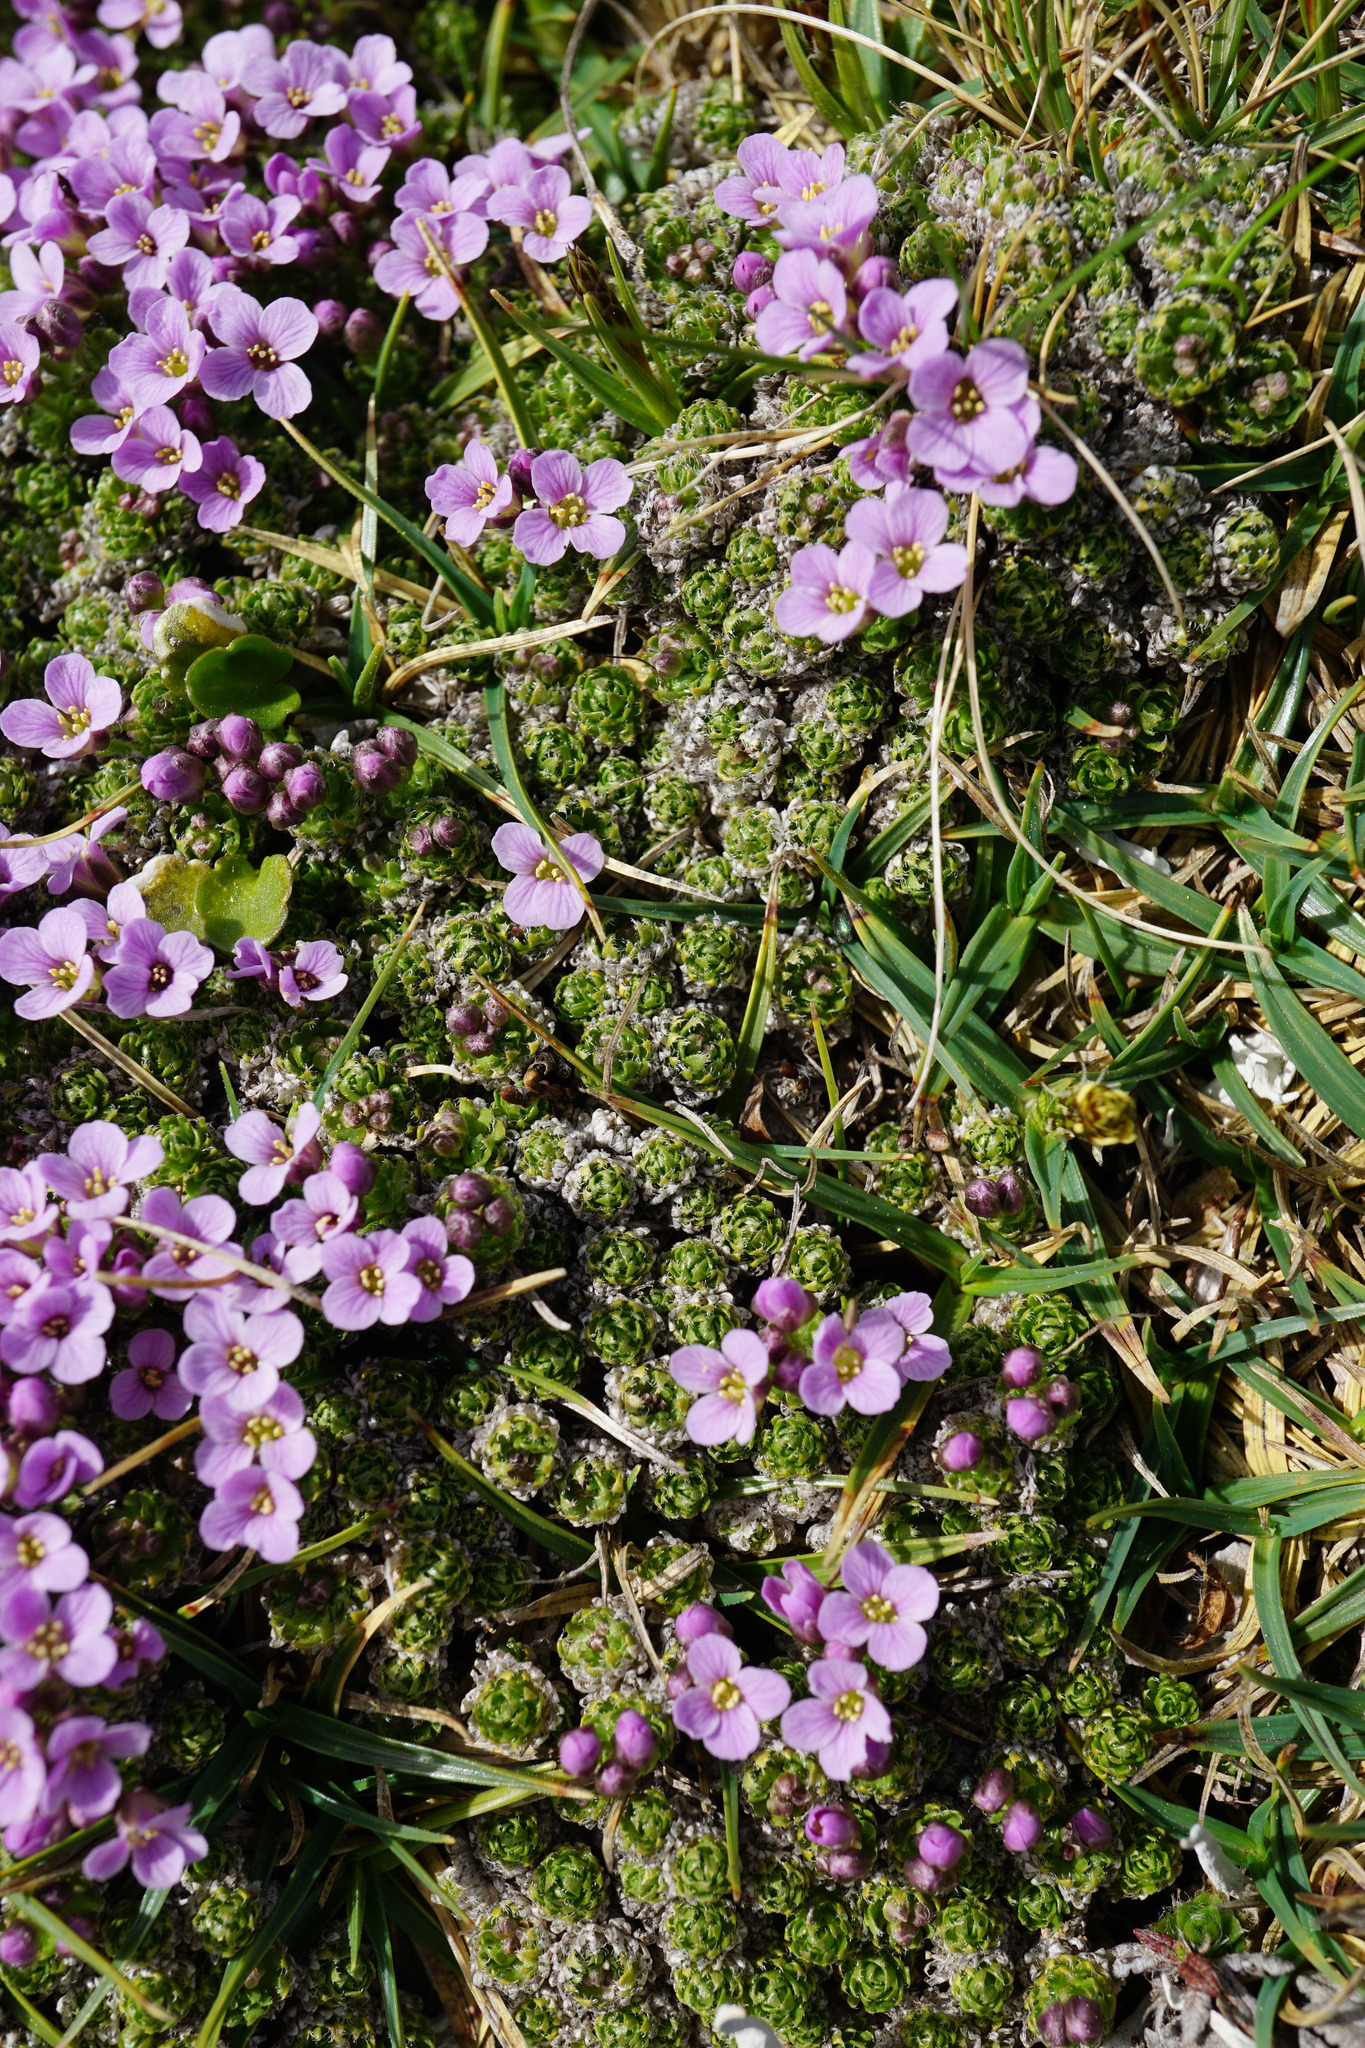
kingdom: Plantae
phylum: Tracheophyta
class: Magnoliopsida
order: Brassicales
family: Brassicaceae
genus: Petrocallis
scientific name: Petrocallis pyrenaica
